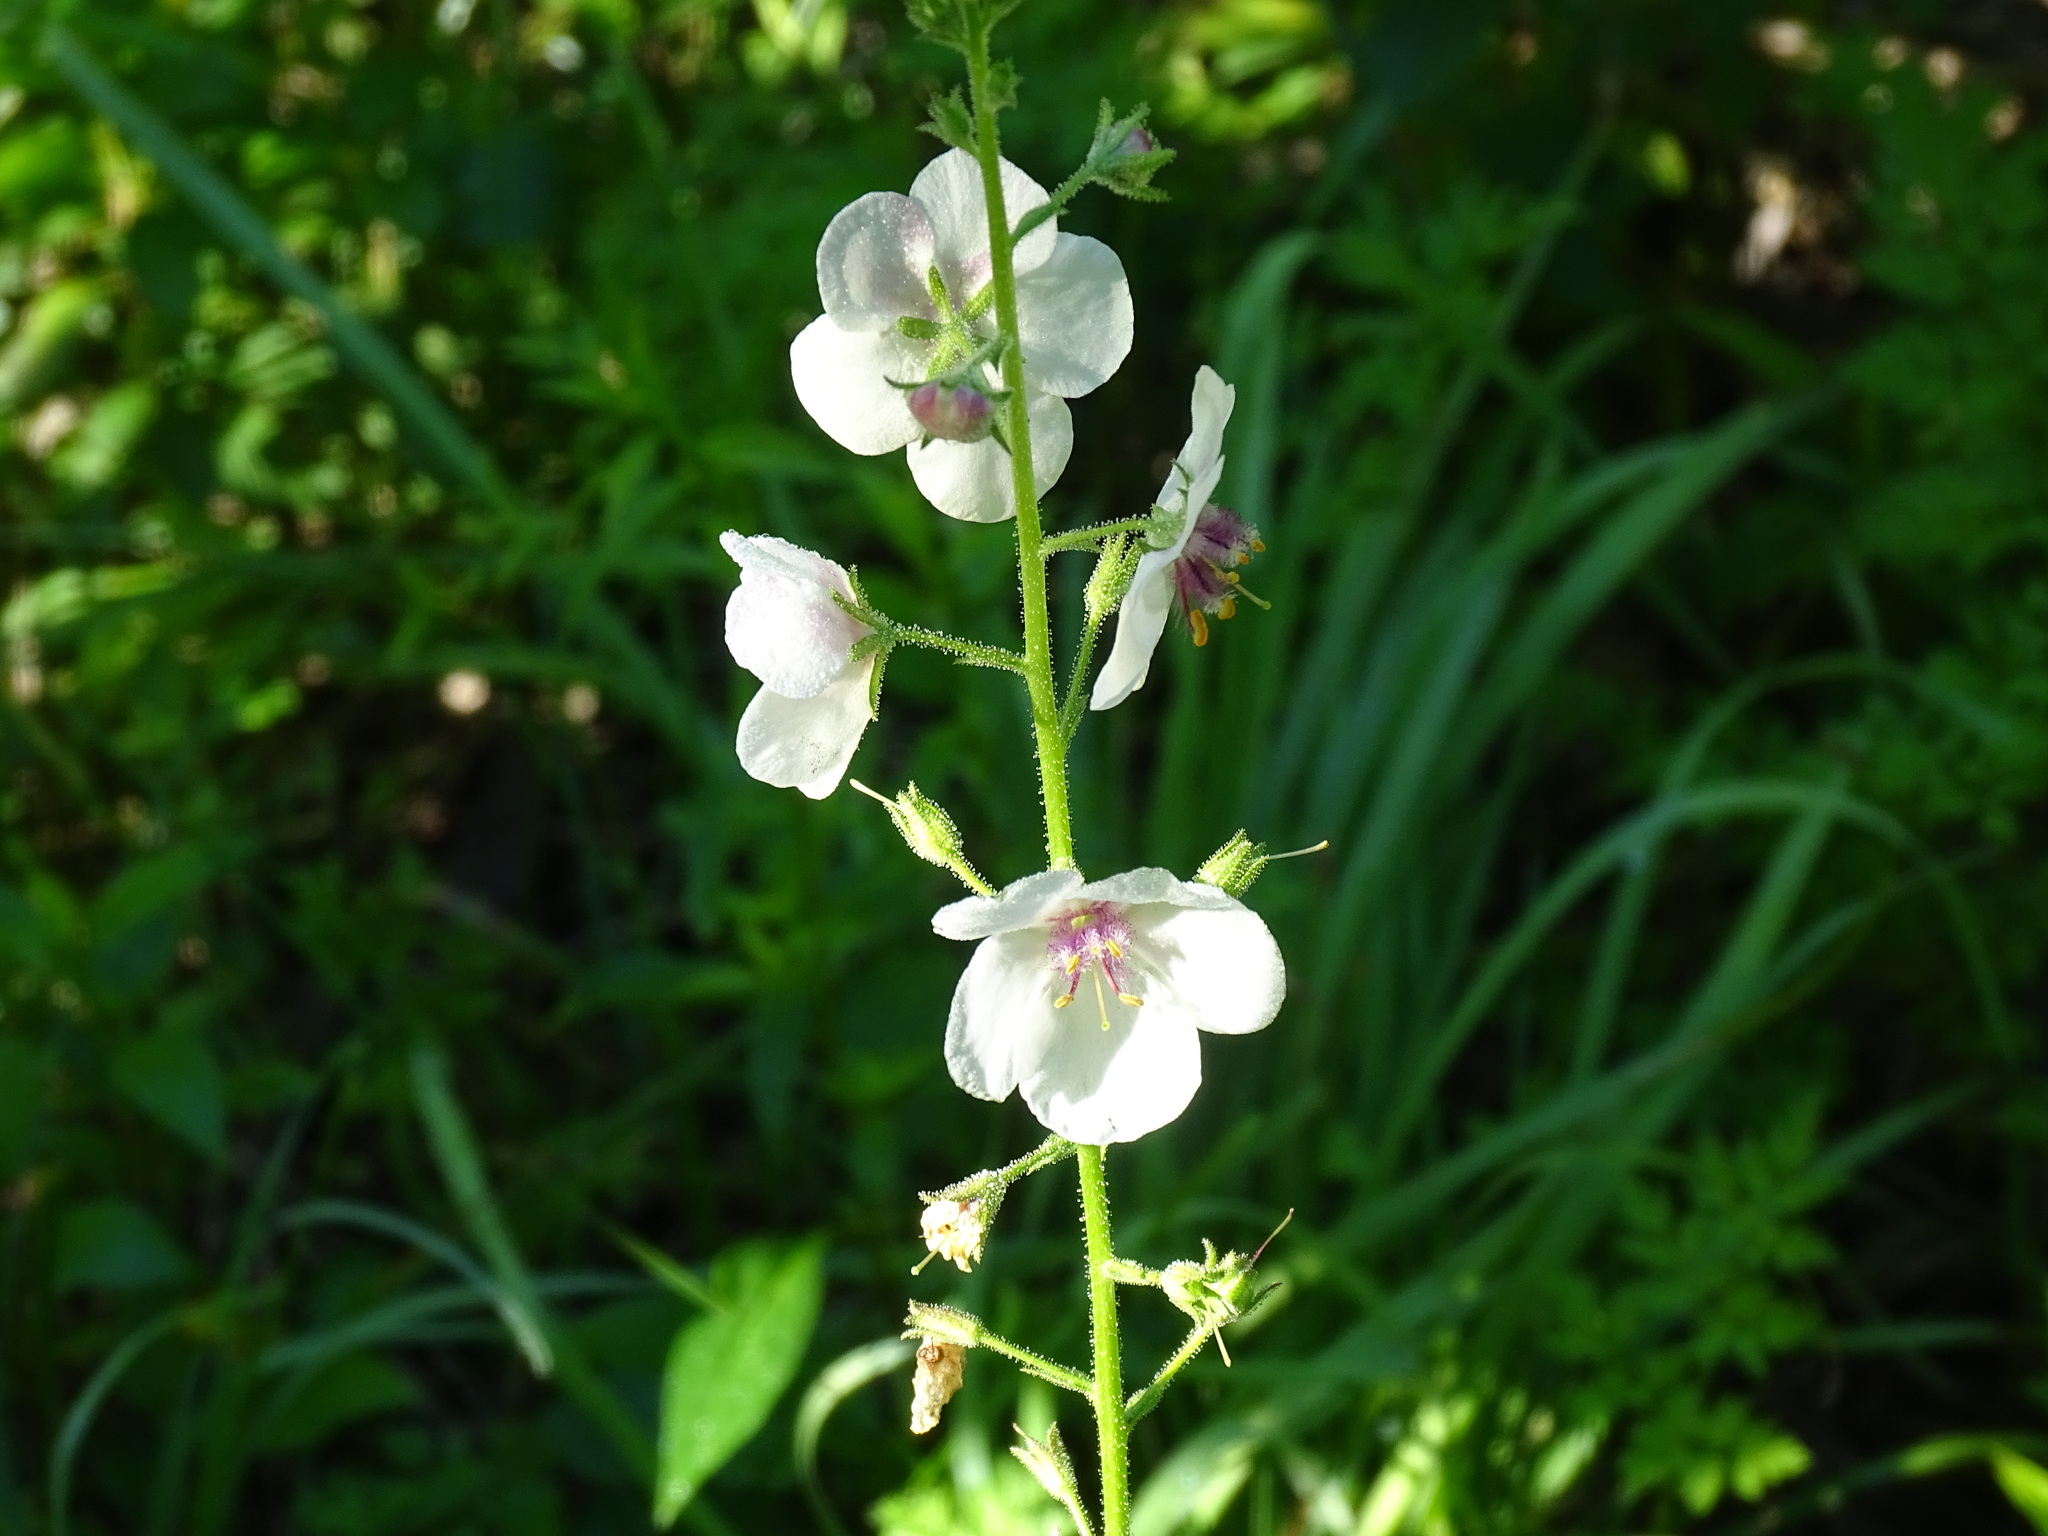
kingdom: Plantae
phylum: Tracheophyta
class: Magnoliopsida
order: Lamiales
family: Scrophulariaceae
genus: Verbascum
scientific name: Verbascum blattaria
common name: Moth mullein
